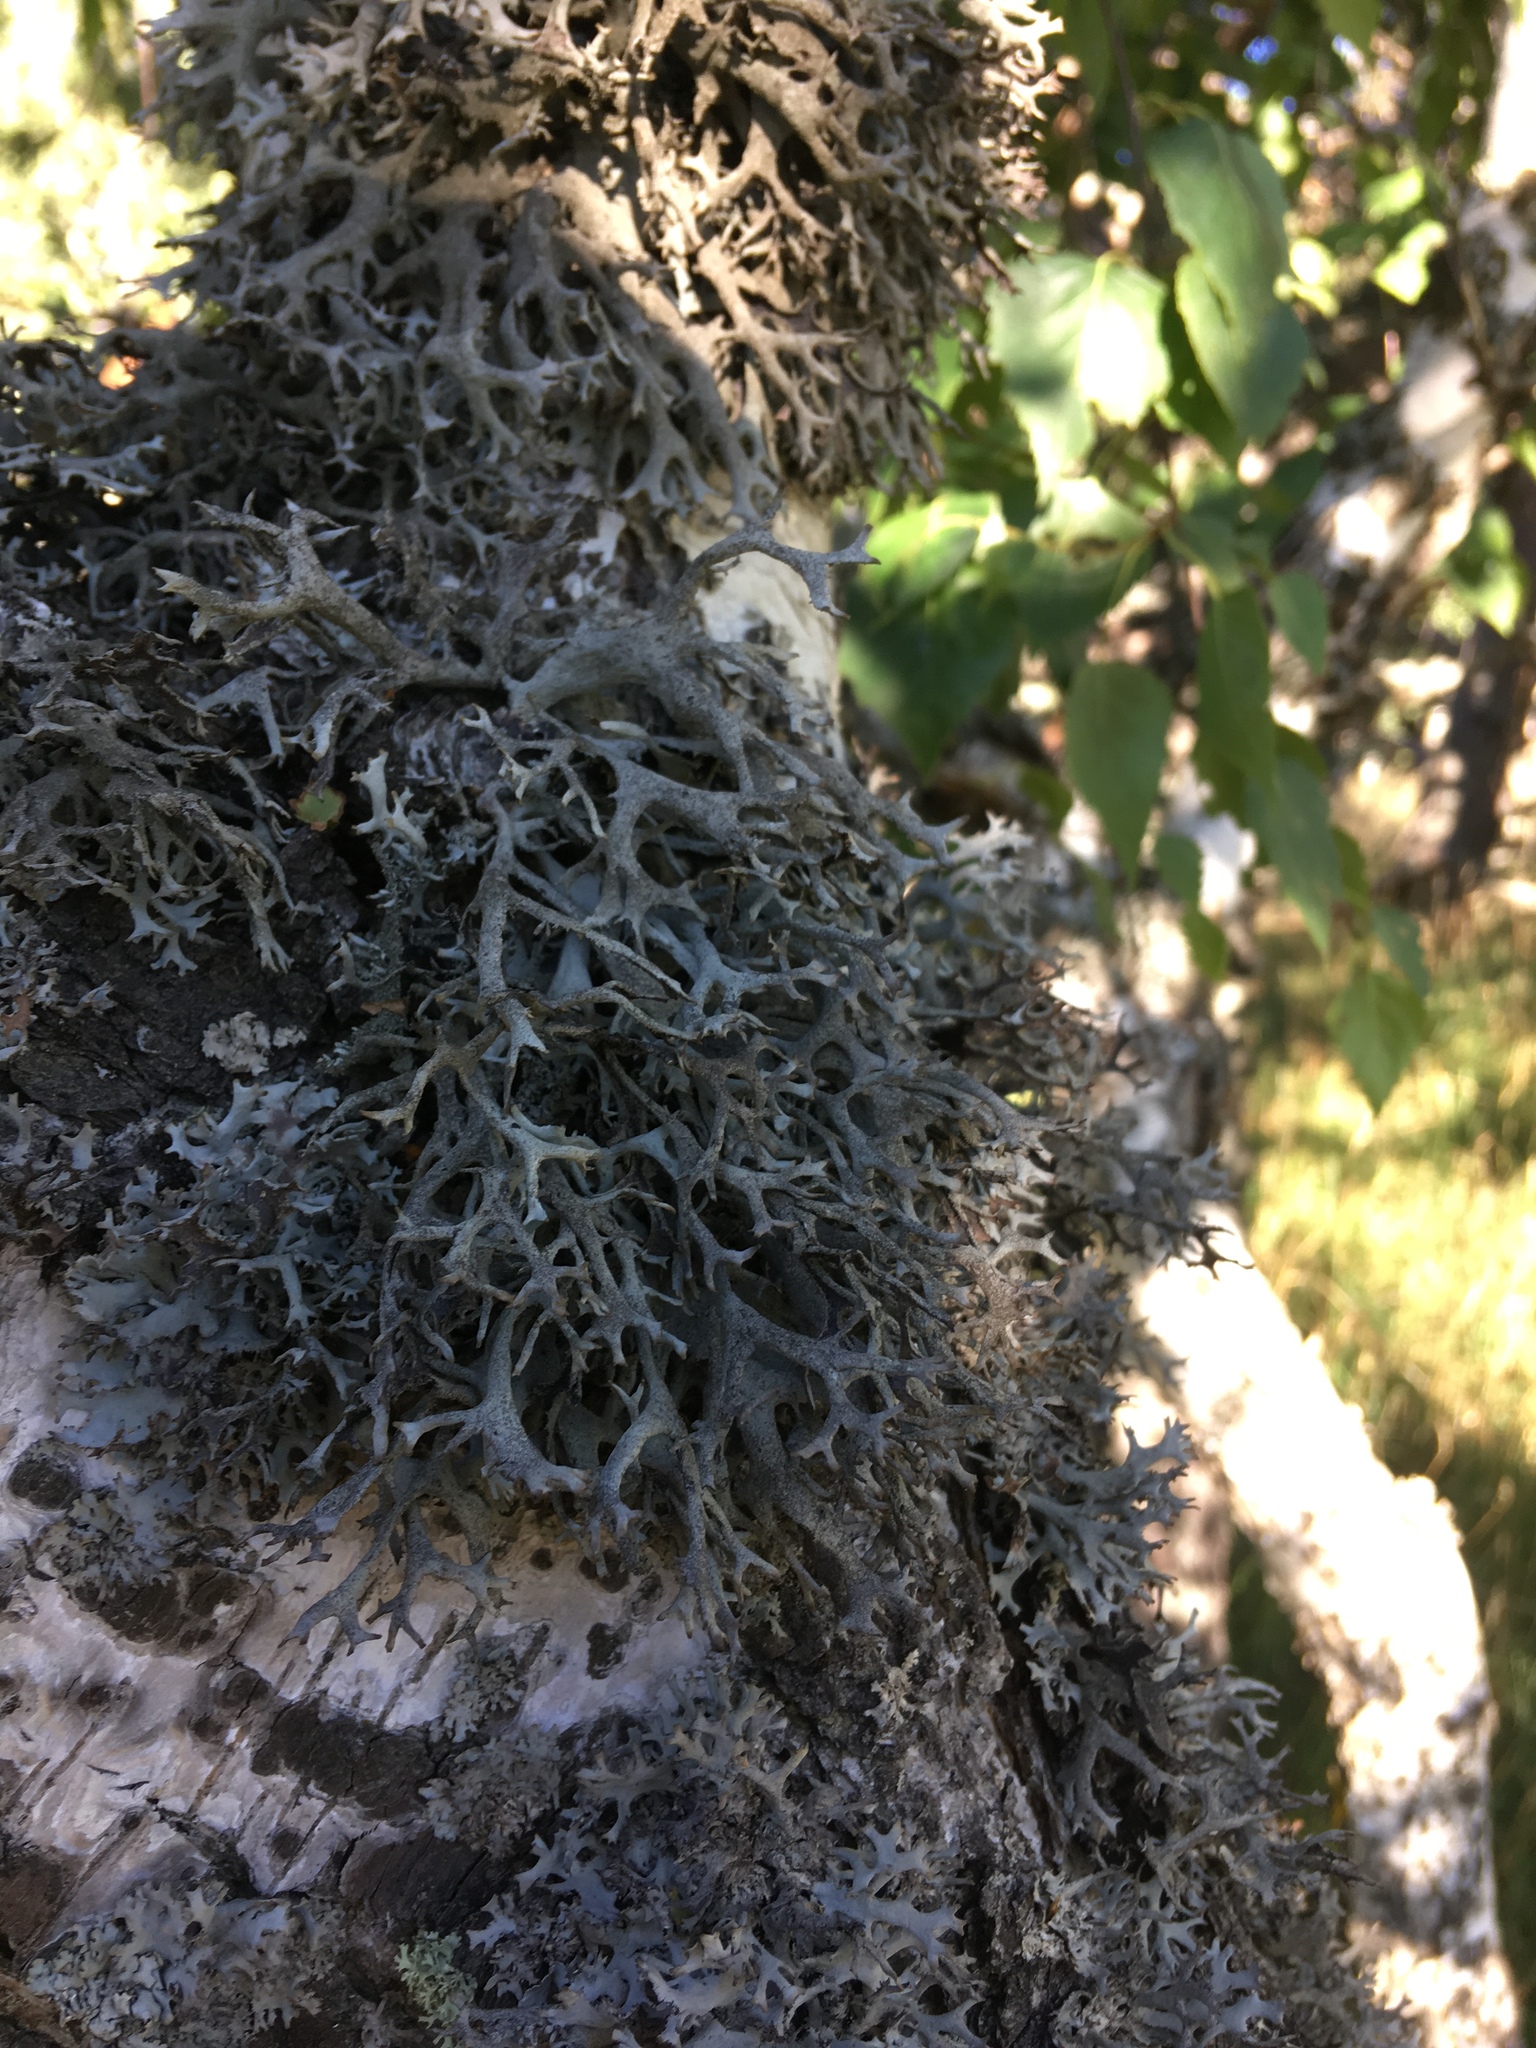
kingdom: Fungi
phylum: Ascomycota
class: Lecanoromycetes
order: Lecanorales
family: Parmeliaceae
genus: Pseudevernia
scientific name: Pseudevernia furfuracea
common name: Tree moss
